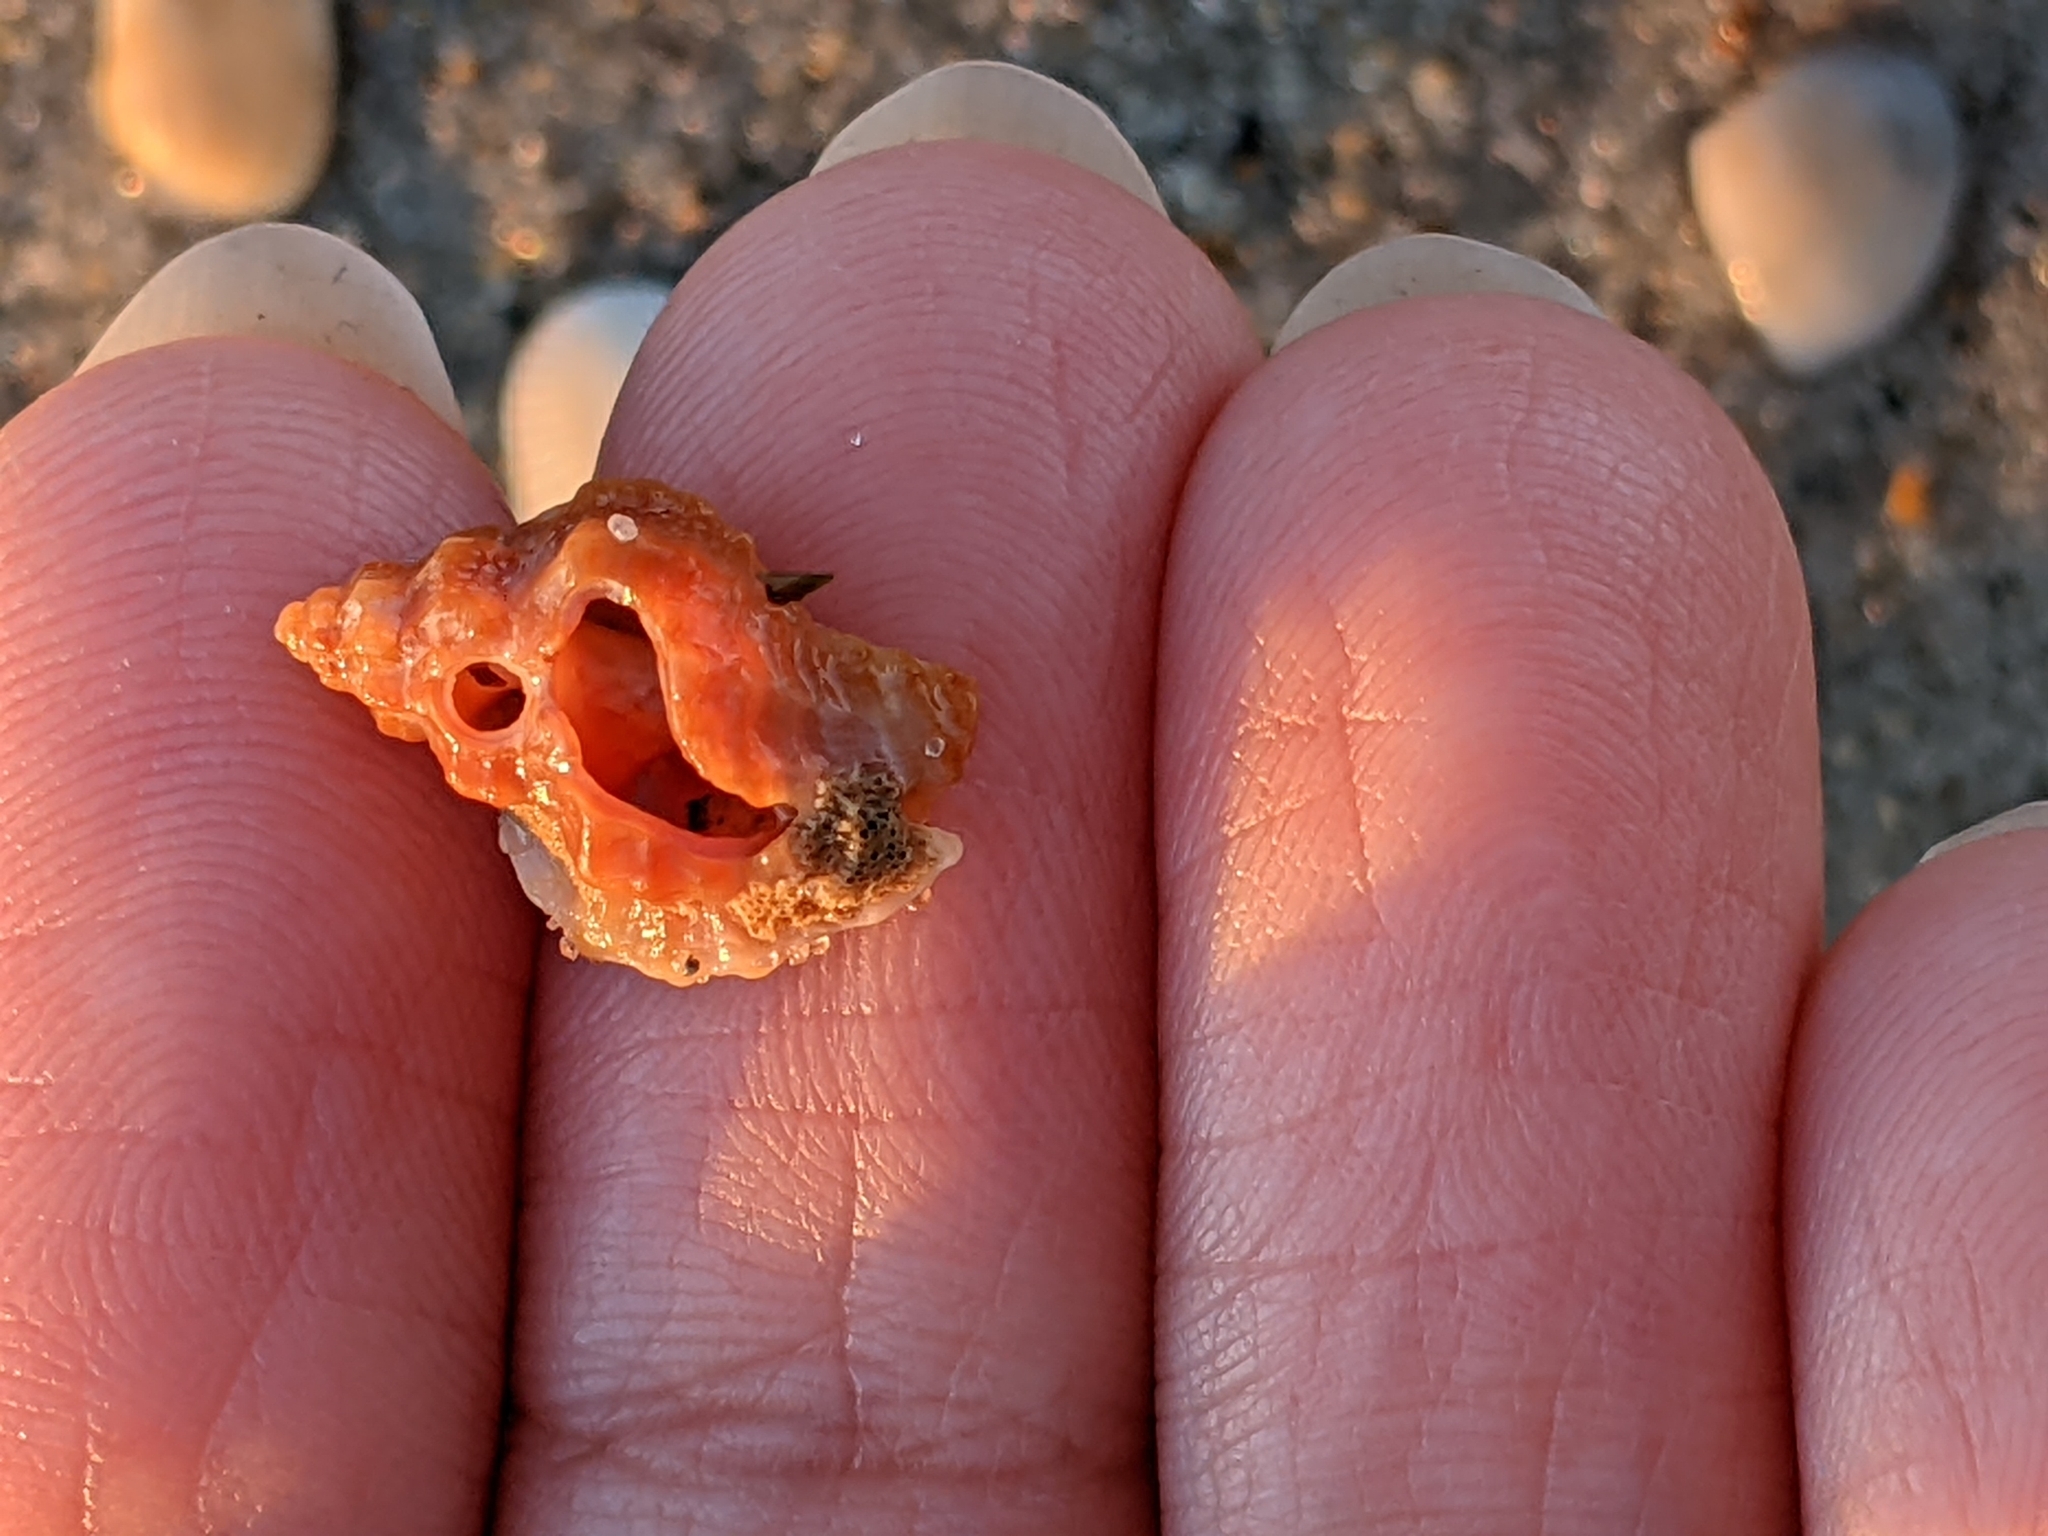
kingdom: Animalia
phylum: Mollusca
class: Gastropoda
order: Neogastropoda
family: Muricidae
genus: Eupleura
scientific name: Eupleura caudata
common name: Thick-lip drill
